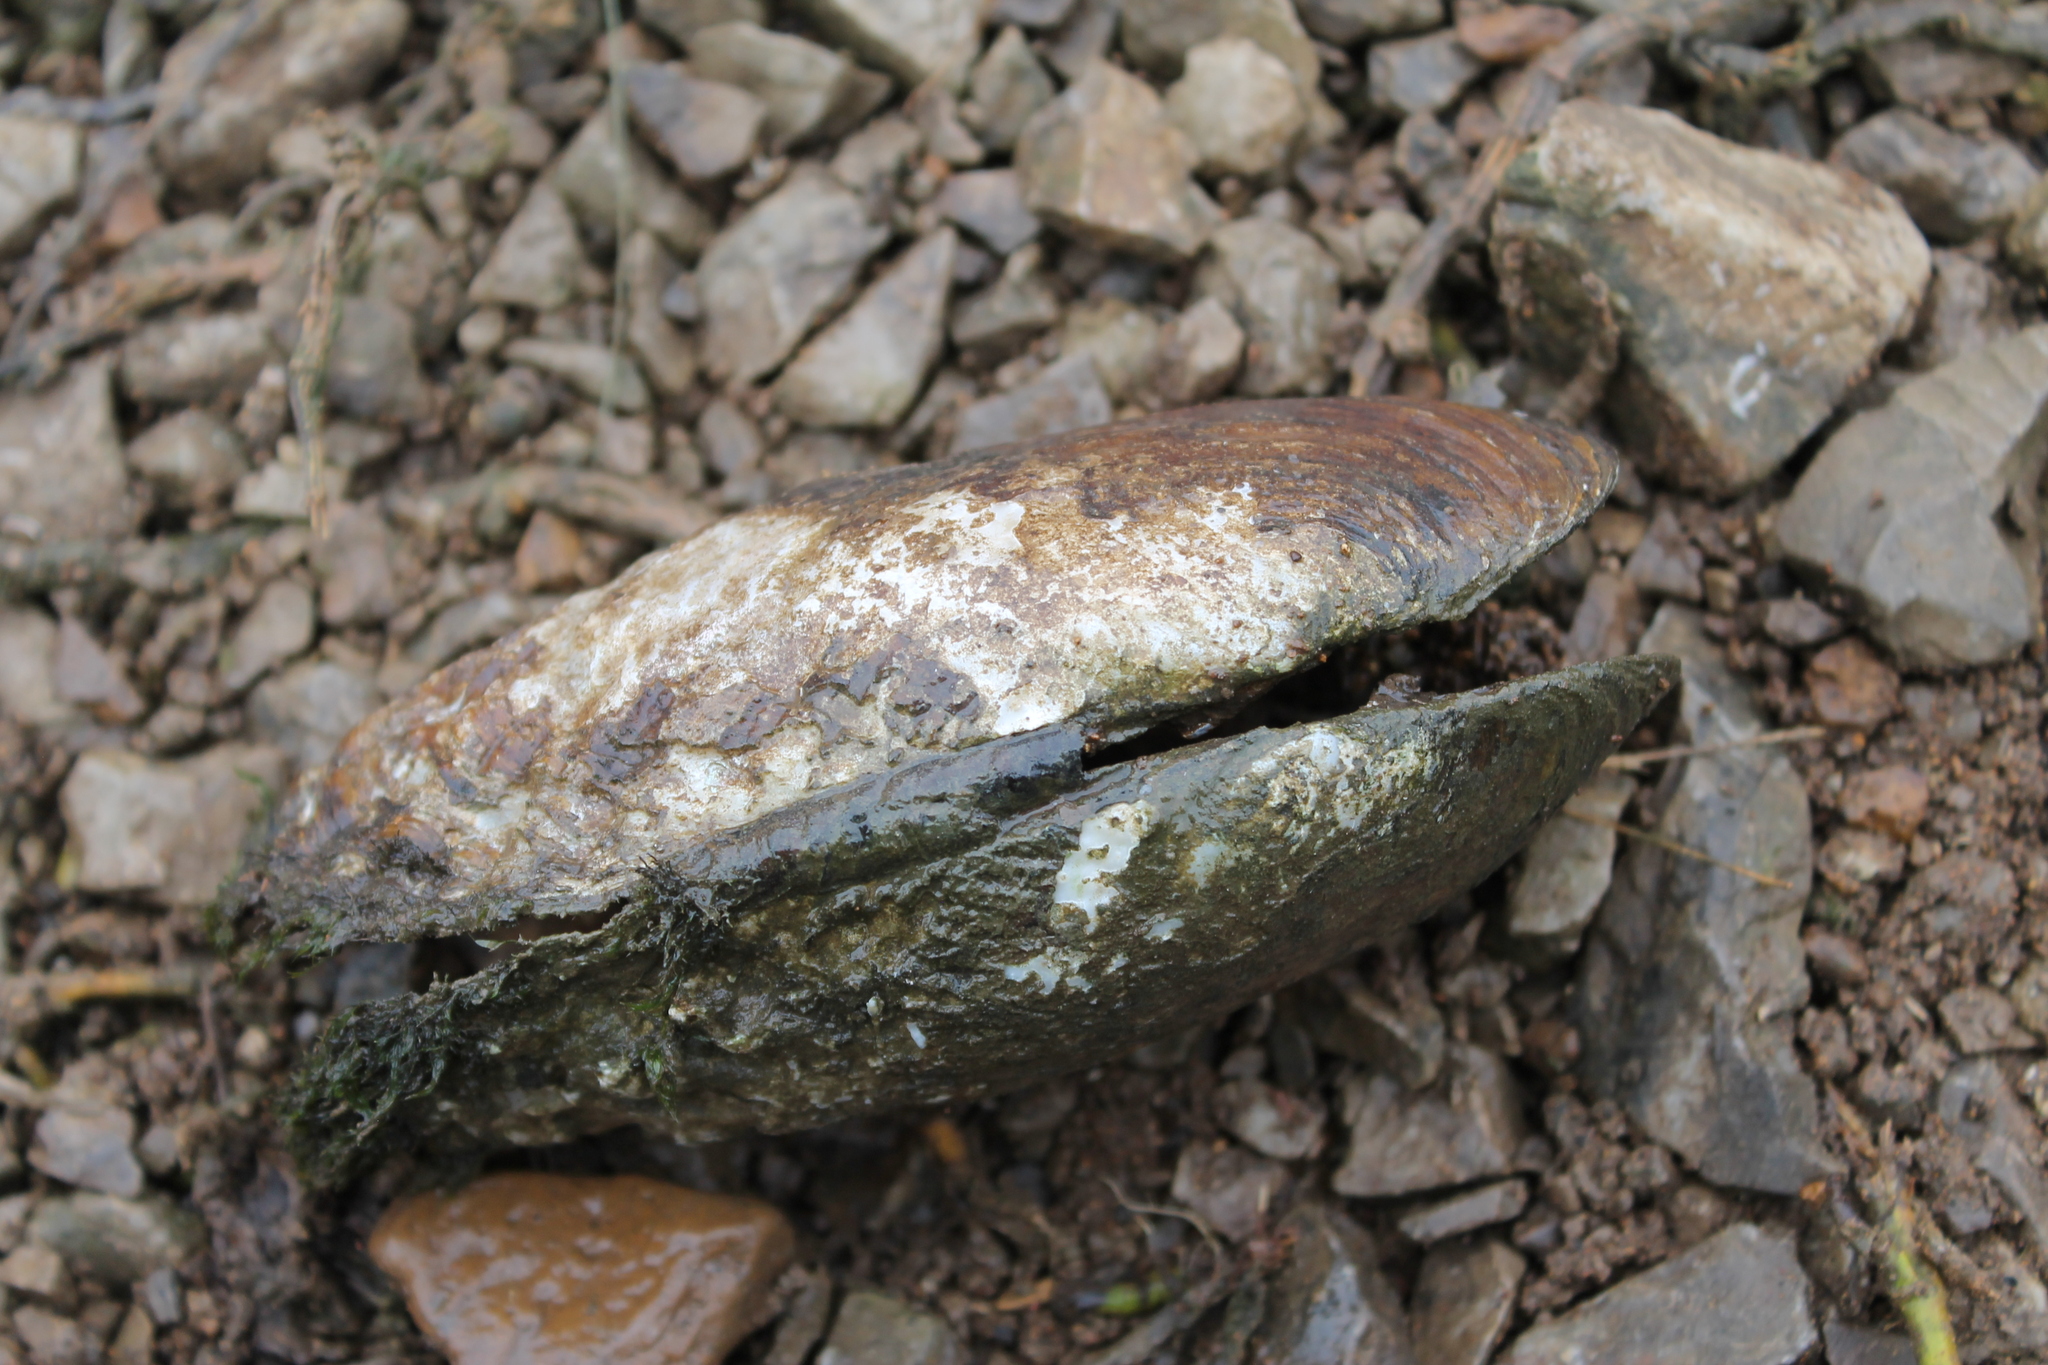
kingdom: Animalia
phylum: Mollusca
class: Bivalvia
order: Unionida
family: Unionidae
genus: Lasmigona
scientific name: Lasmigona costata
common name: Flutedshell
